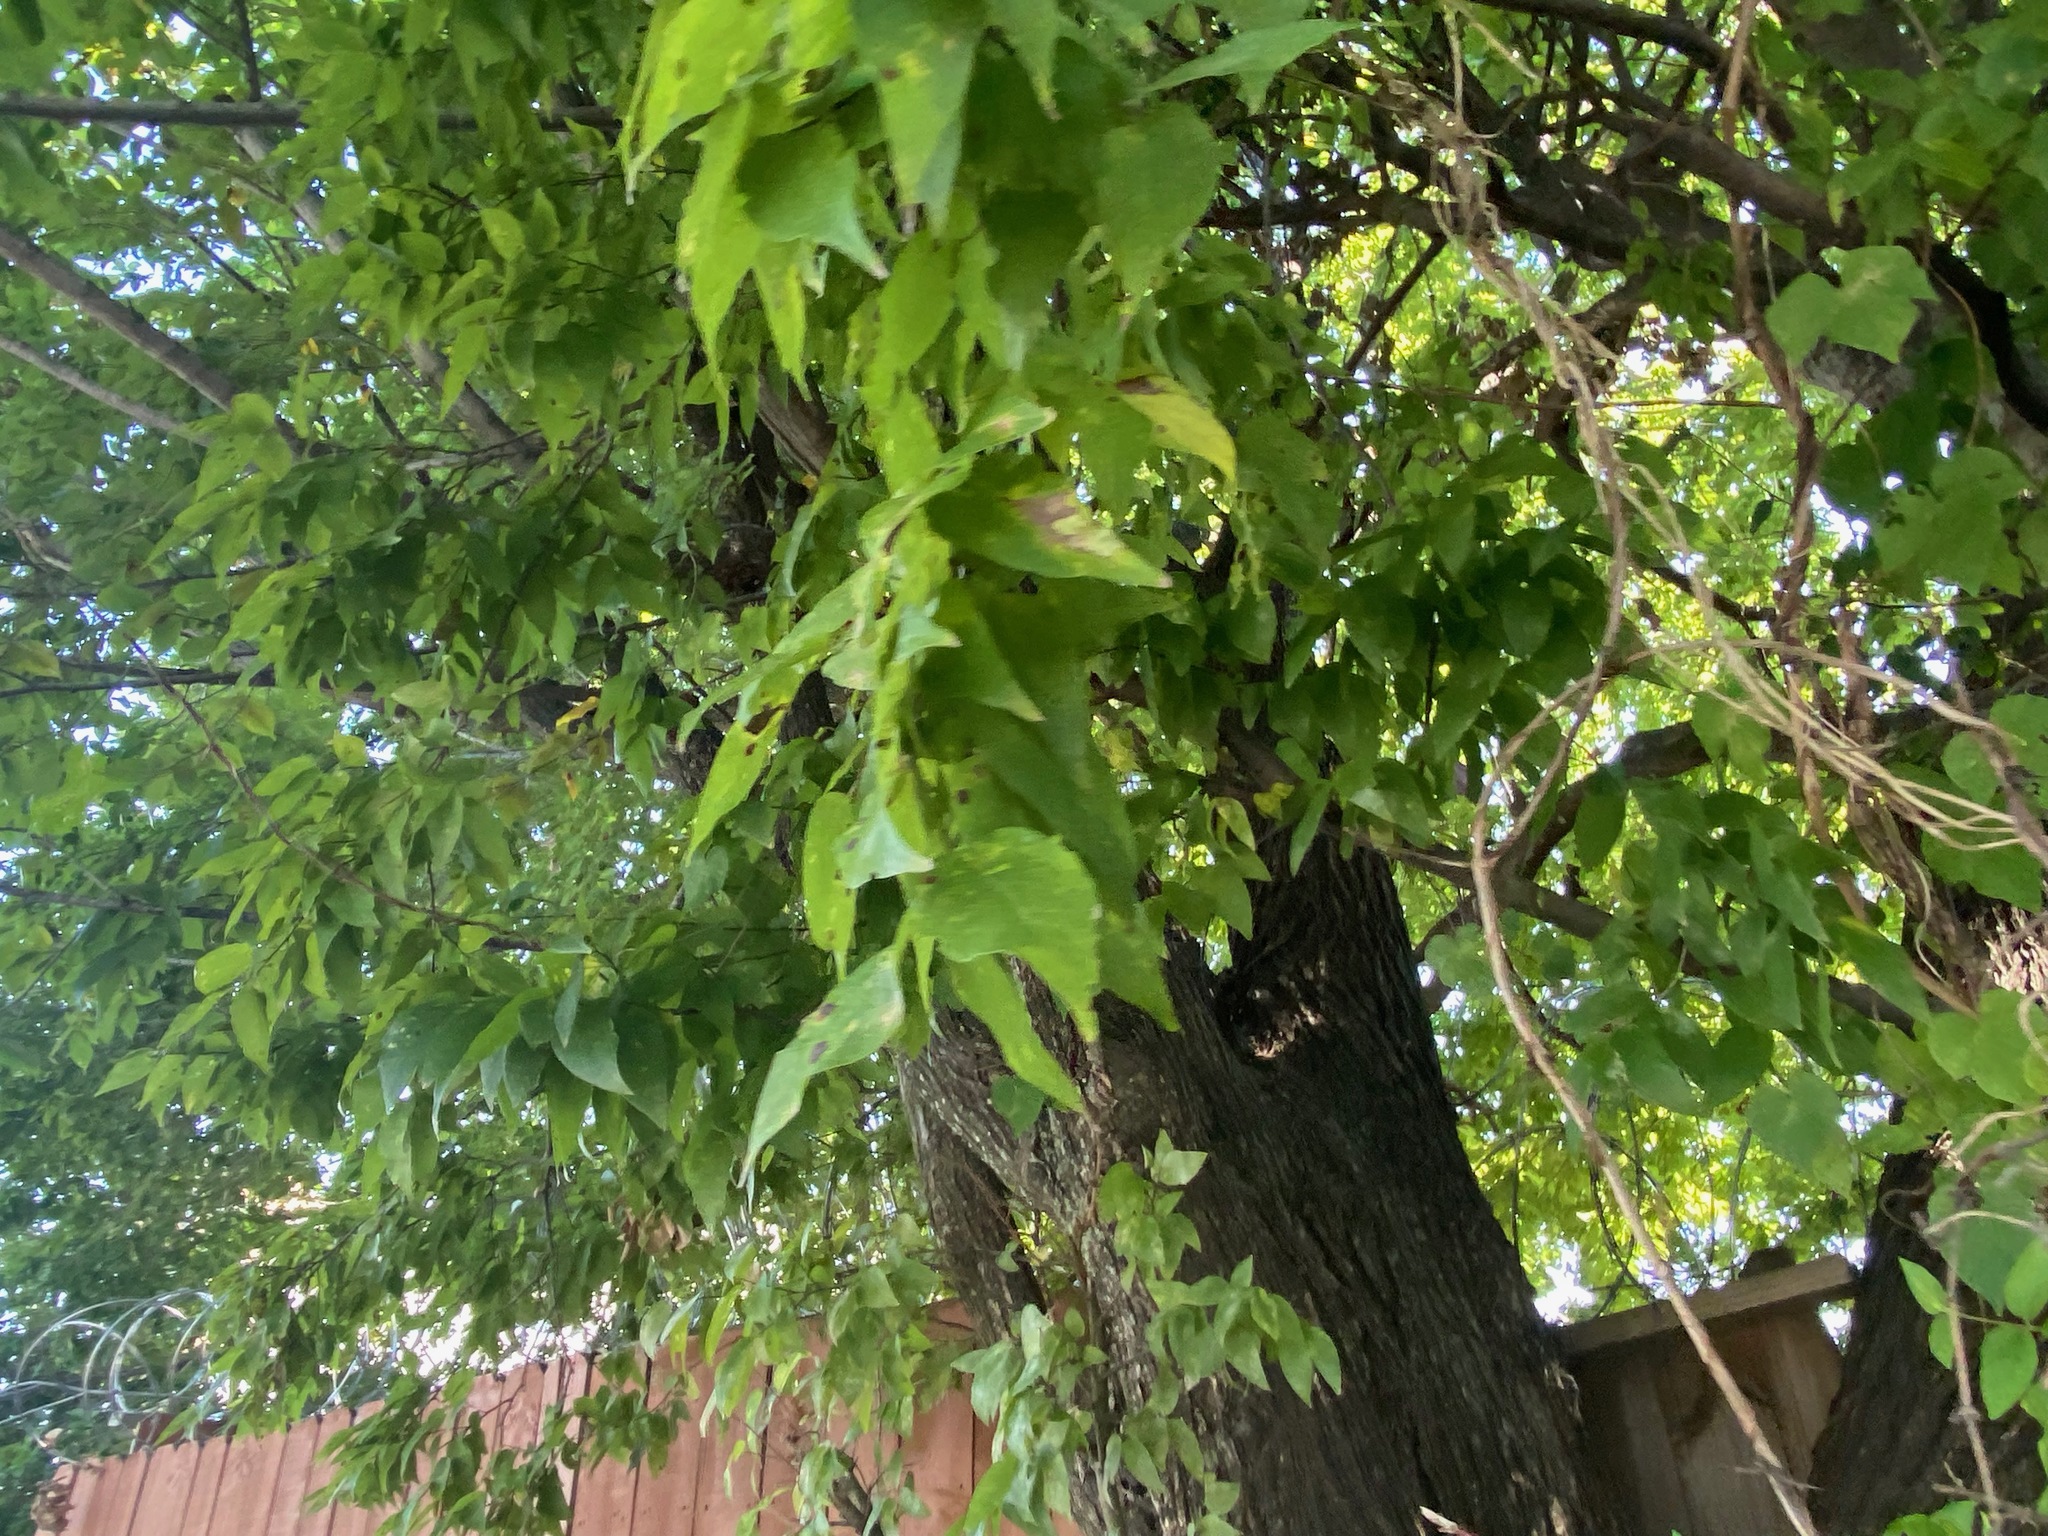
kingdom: Plantae
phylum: Tracheophyta
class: Magnoliopsida
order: Rosales
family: Cannabaceae
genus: Celtis
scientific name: Celtis laevigata
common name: Sugarberry
